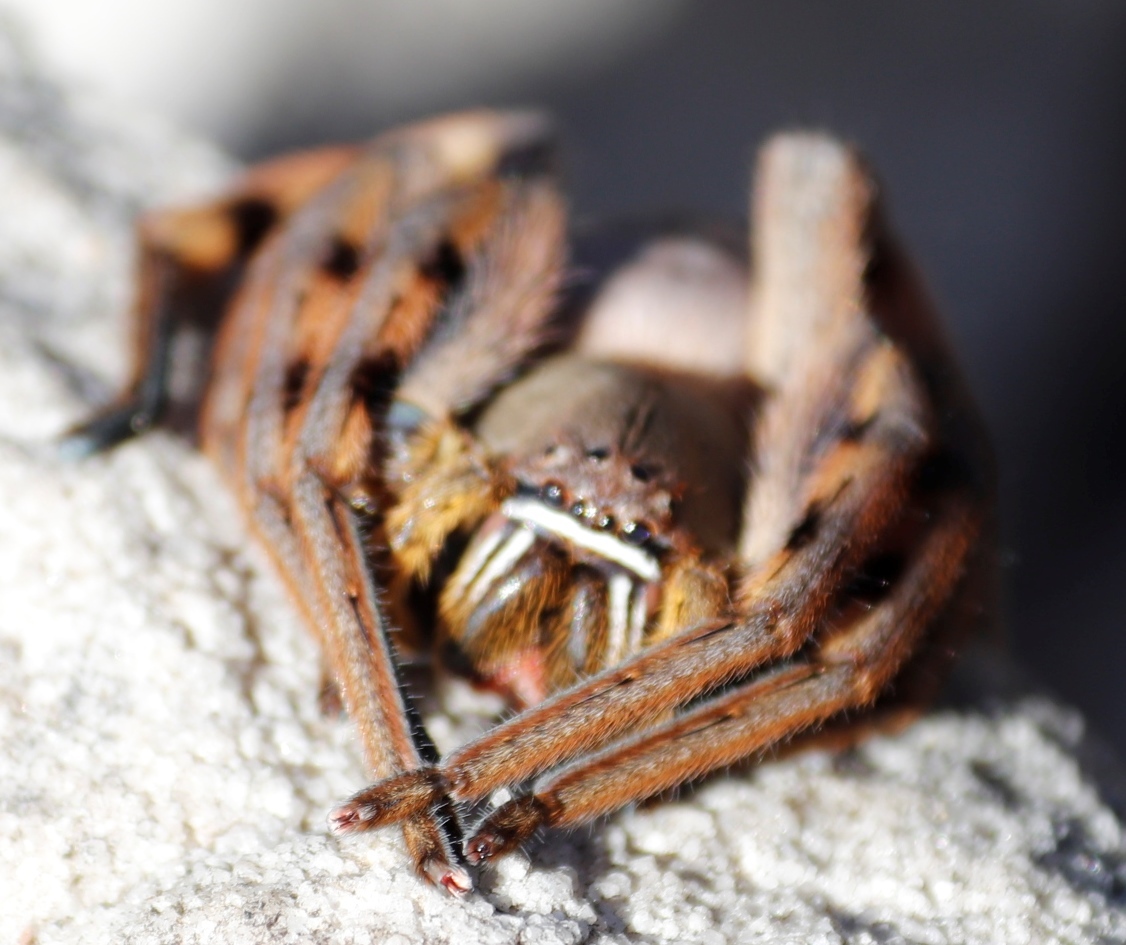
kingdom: Animalia
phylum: Arthropoda
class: Arachnida
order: Araneae
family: Sparassidae
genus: Palystes
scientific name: Palystes castaneus
